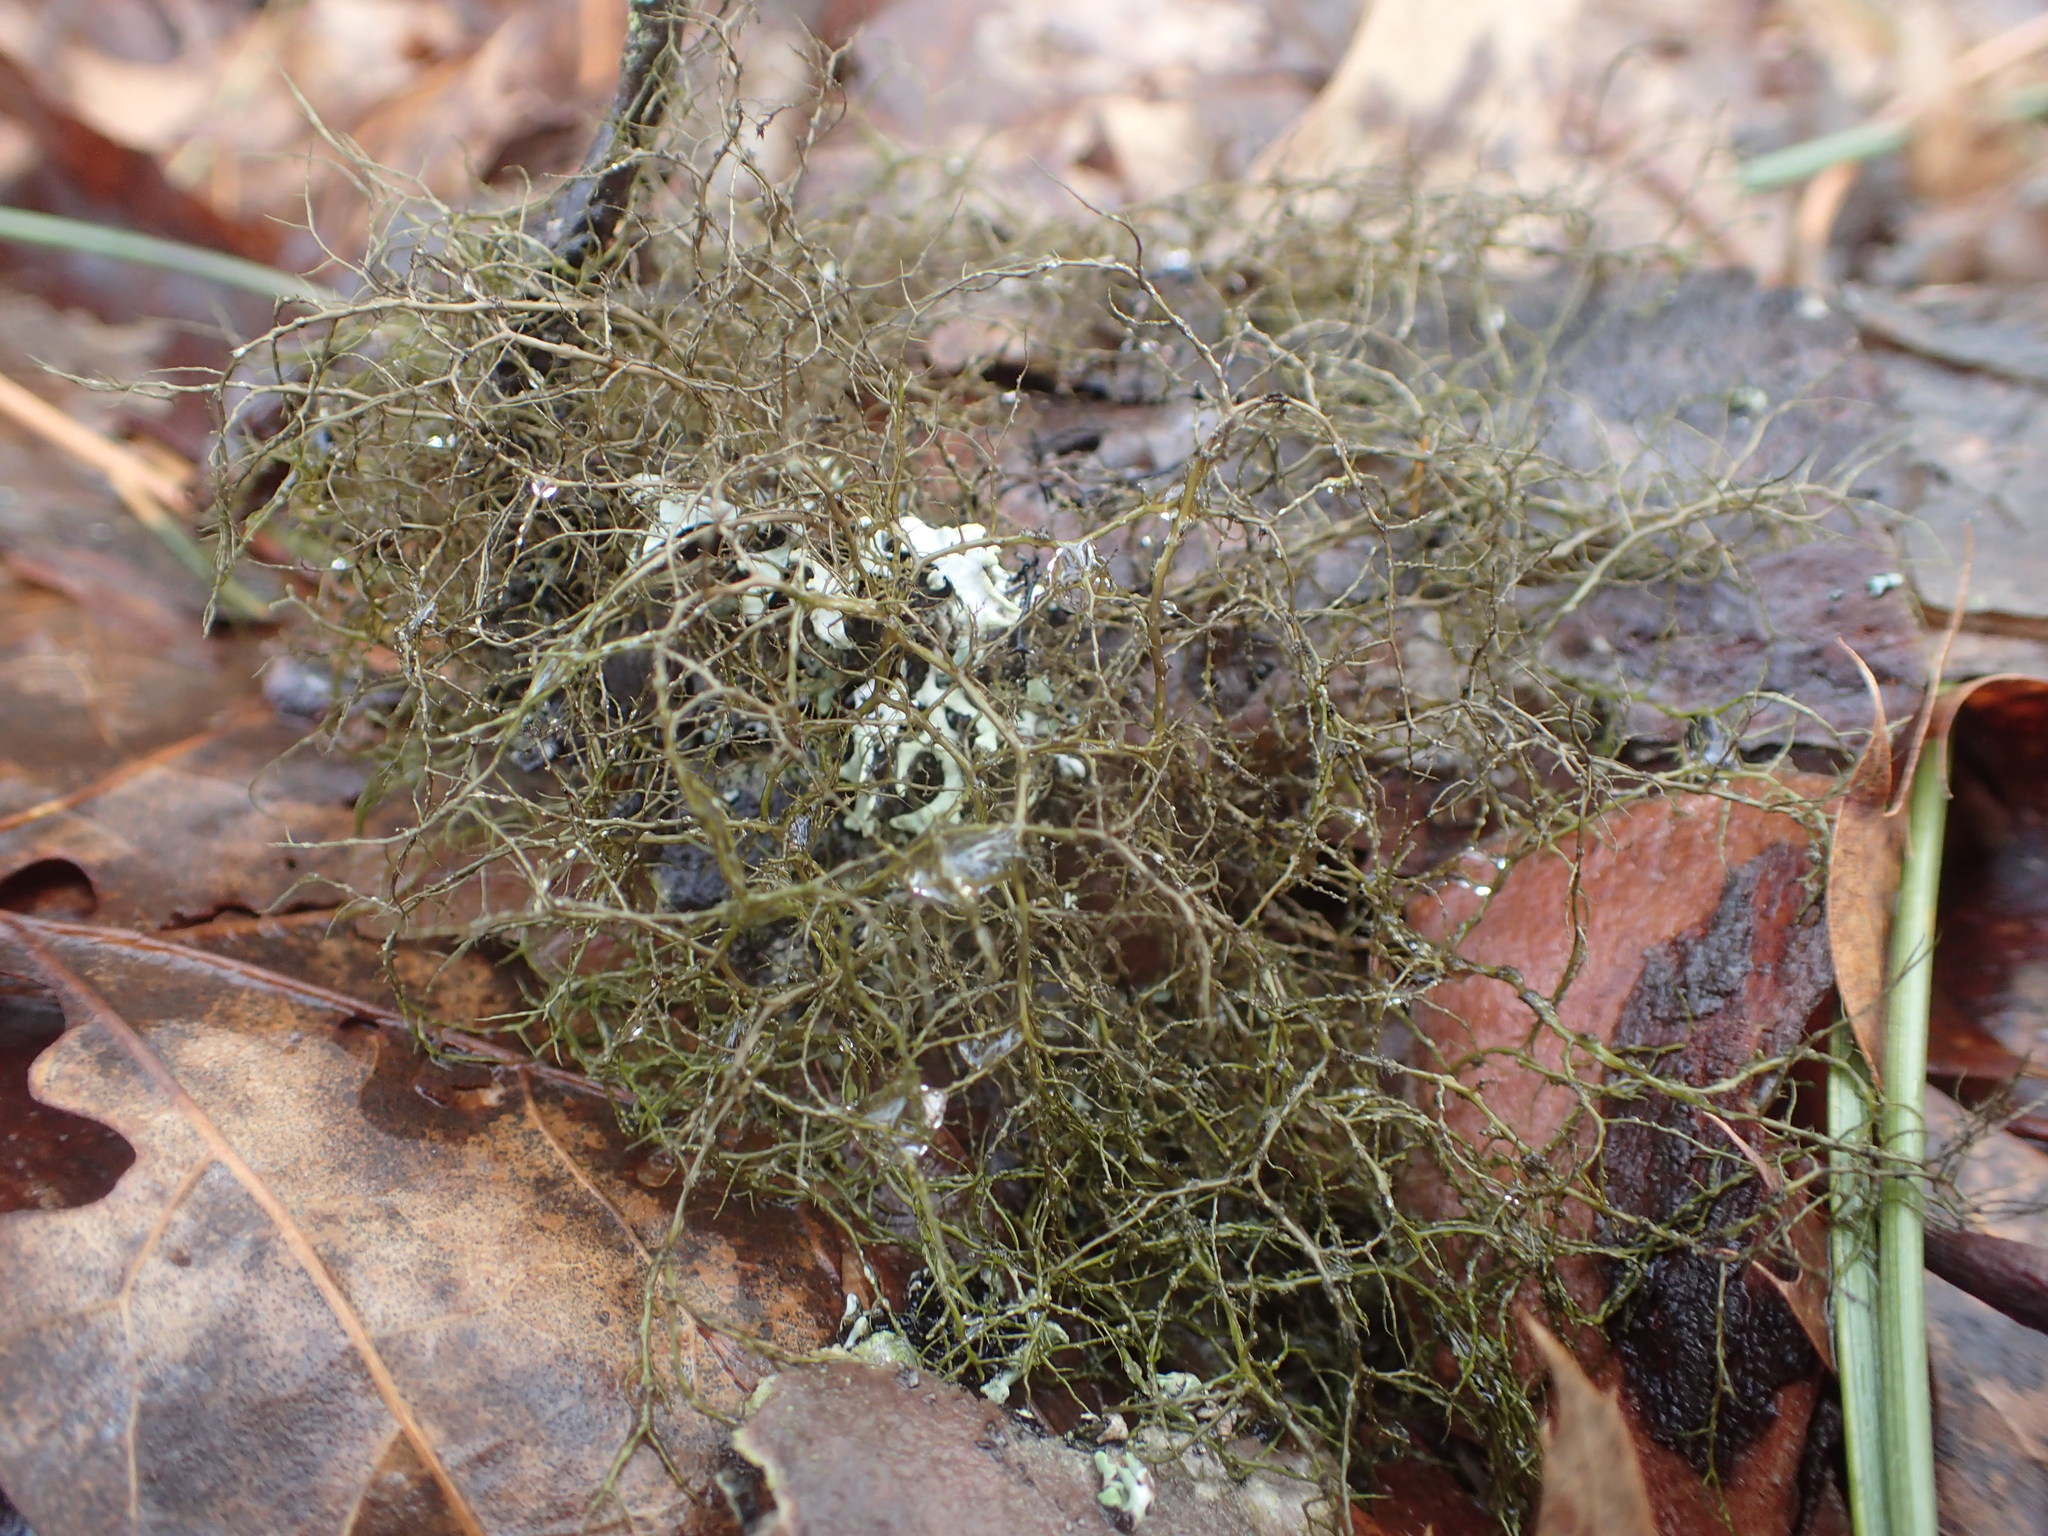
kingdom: Fungi
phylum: Ascomycota
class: Lecanoromycetes
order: Lecanorales
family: Parmeliaceae
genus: Bryoria
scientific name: Bryoria furcellata
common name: Forked hair-lichen
